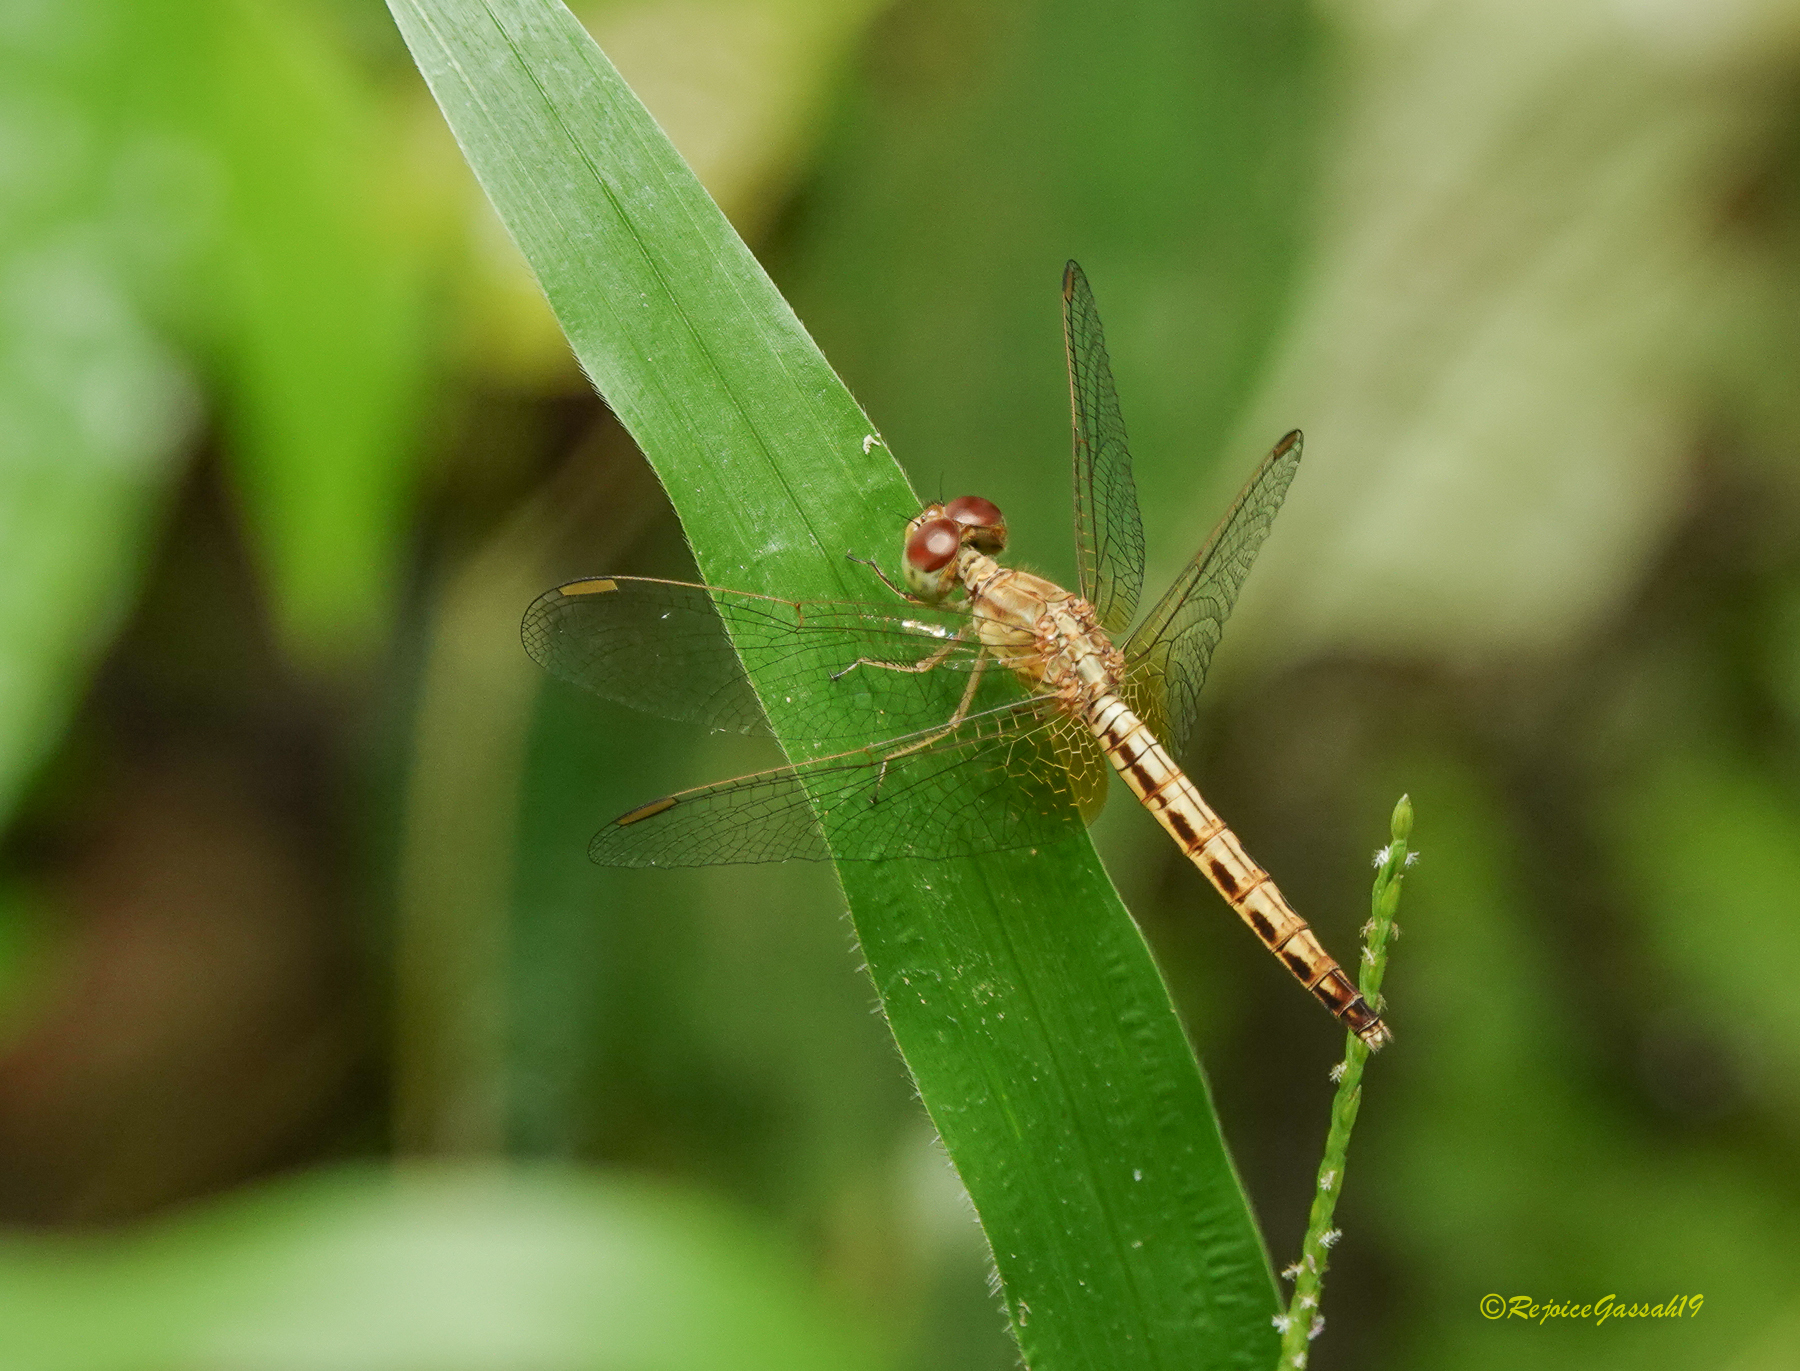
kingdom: Animalia
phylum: Arthropoda
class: Insecta
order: Odonata
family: Libellulidae
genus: Neurothemis
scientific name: Neurothemis intermedia
